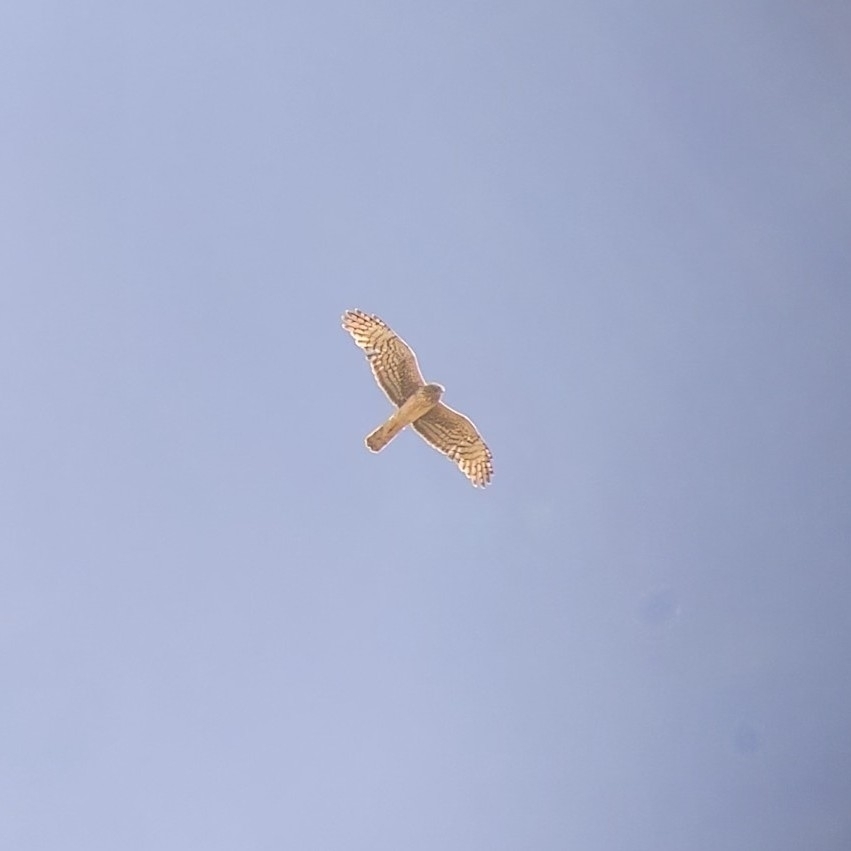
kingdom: Animalia
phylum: Chordata
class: Aves
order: Accipitriformes
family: Accipitridae
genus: Circus
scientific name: Circus cyaneus
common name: Hen harrier
